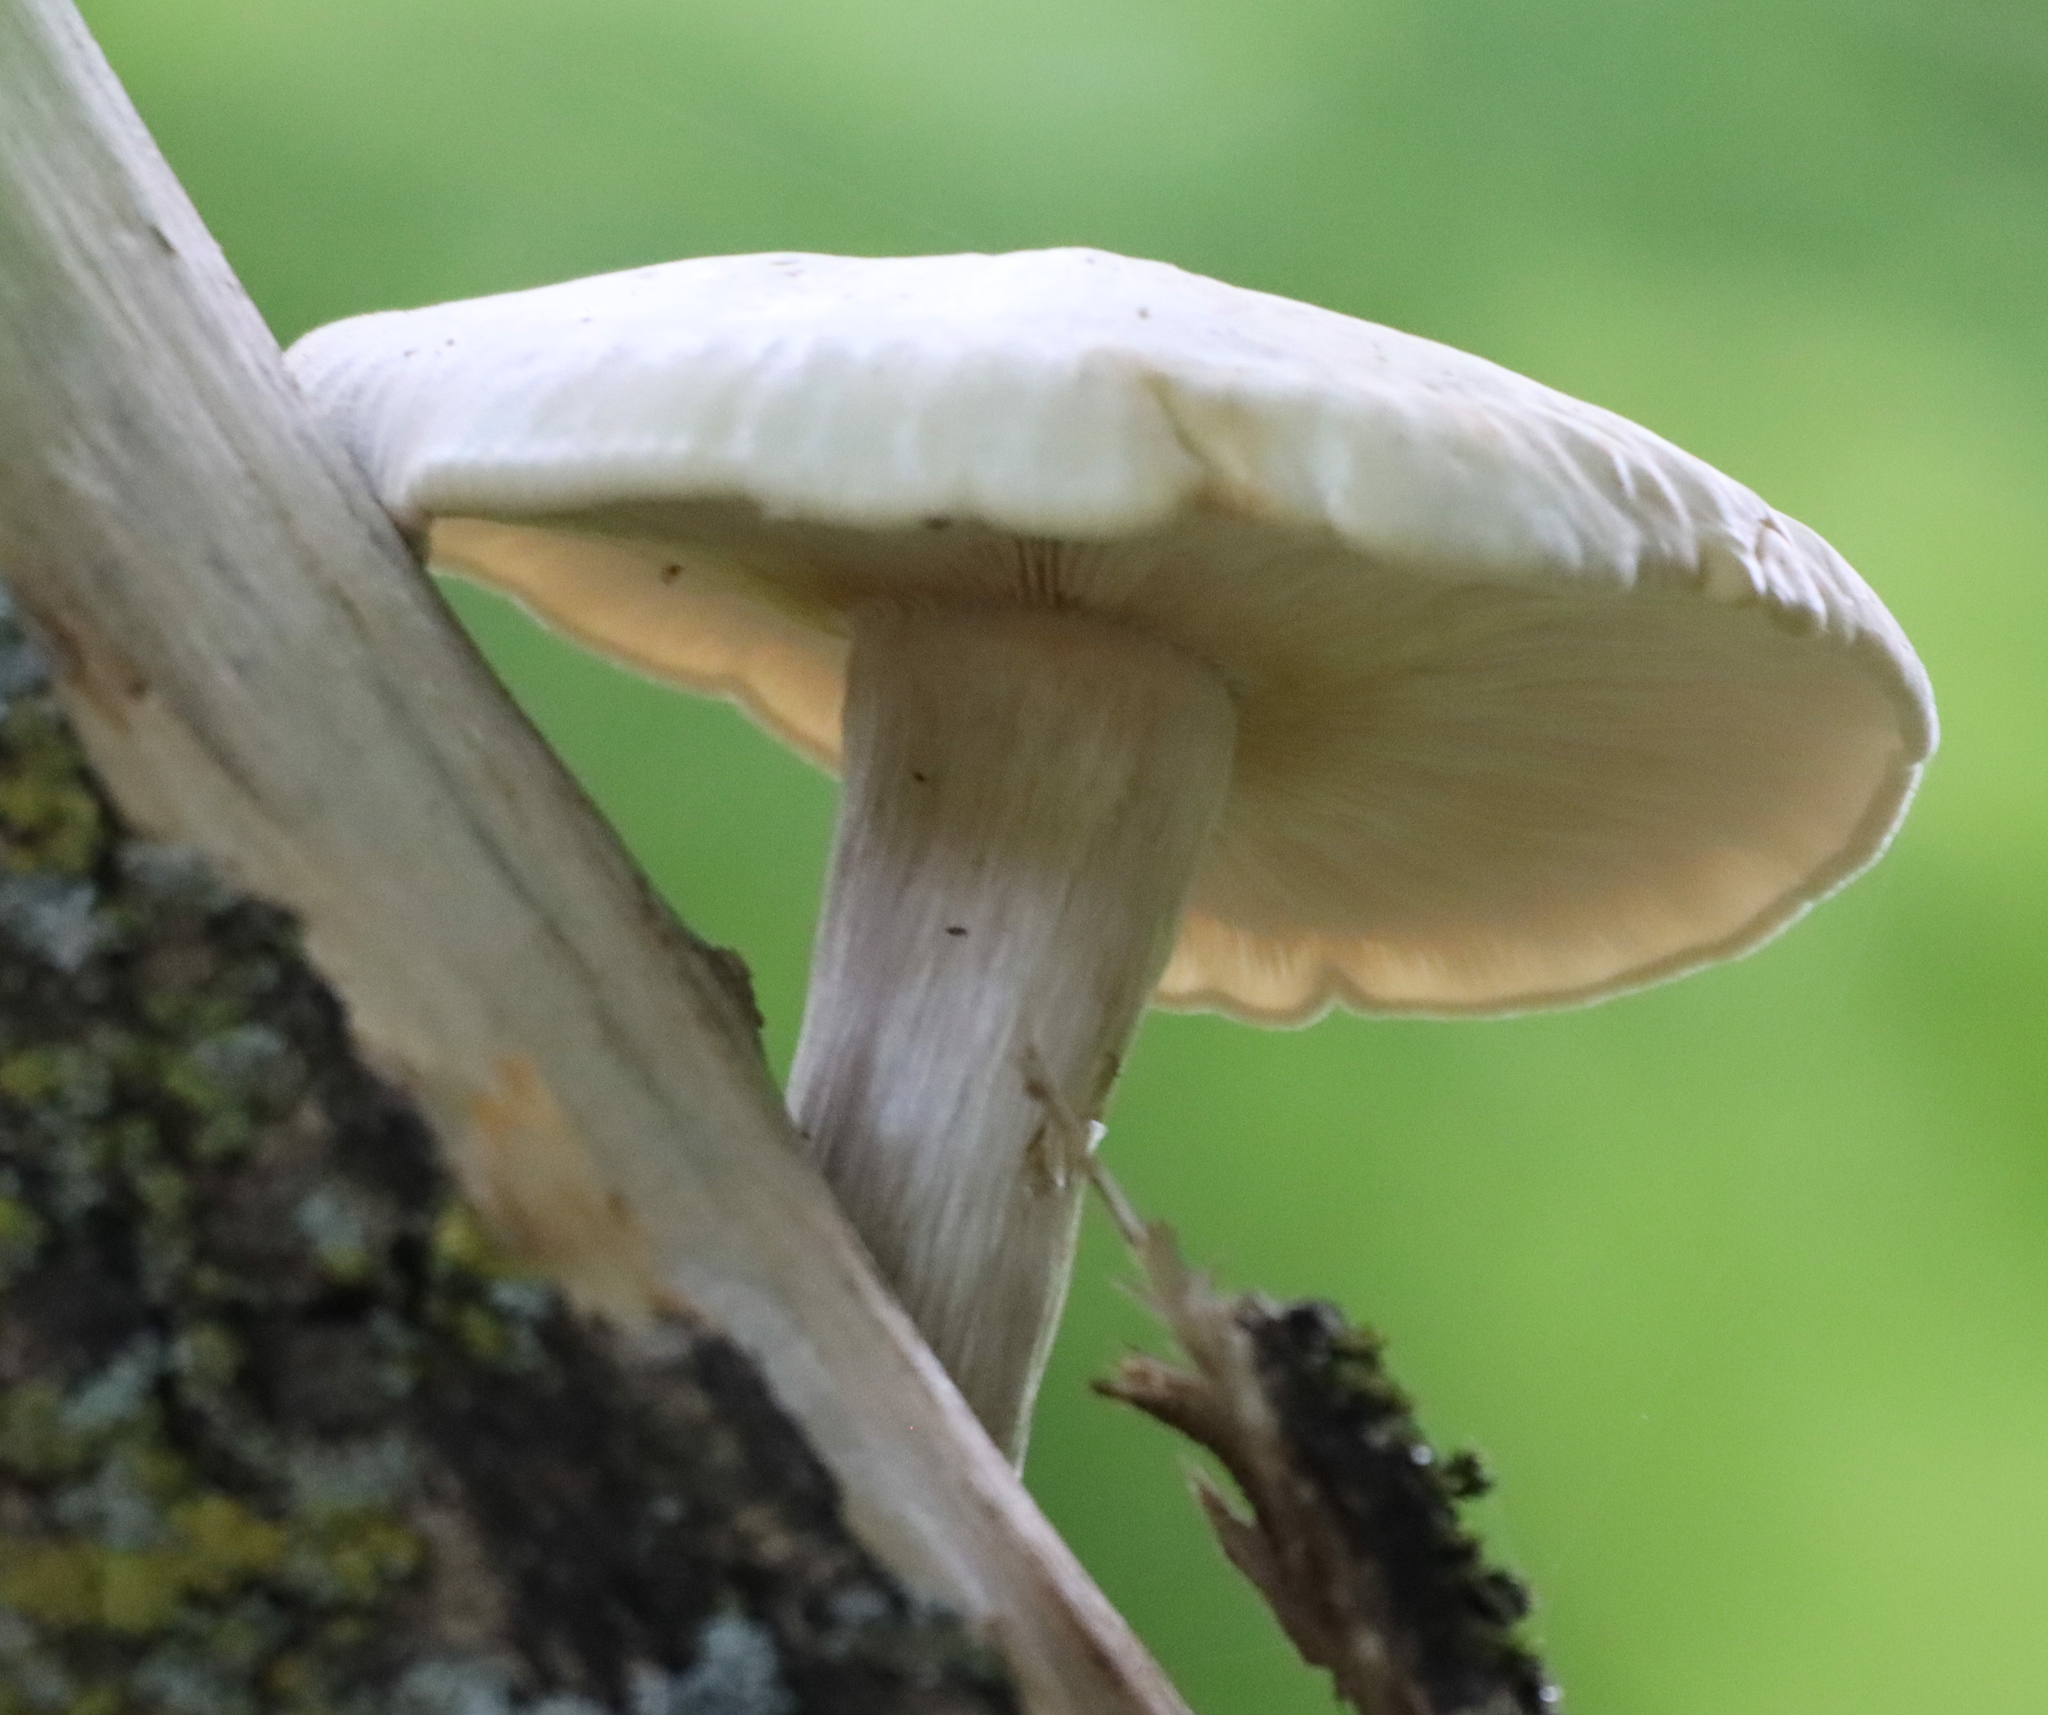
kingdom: Fungi
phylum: Basidiomycota
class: Agaricomycetes
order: Agaricales
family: Lyophyllaceae
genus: Hypsizygus
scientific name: Hypsizygus ulmarius
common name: Elm leech
